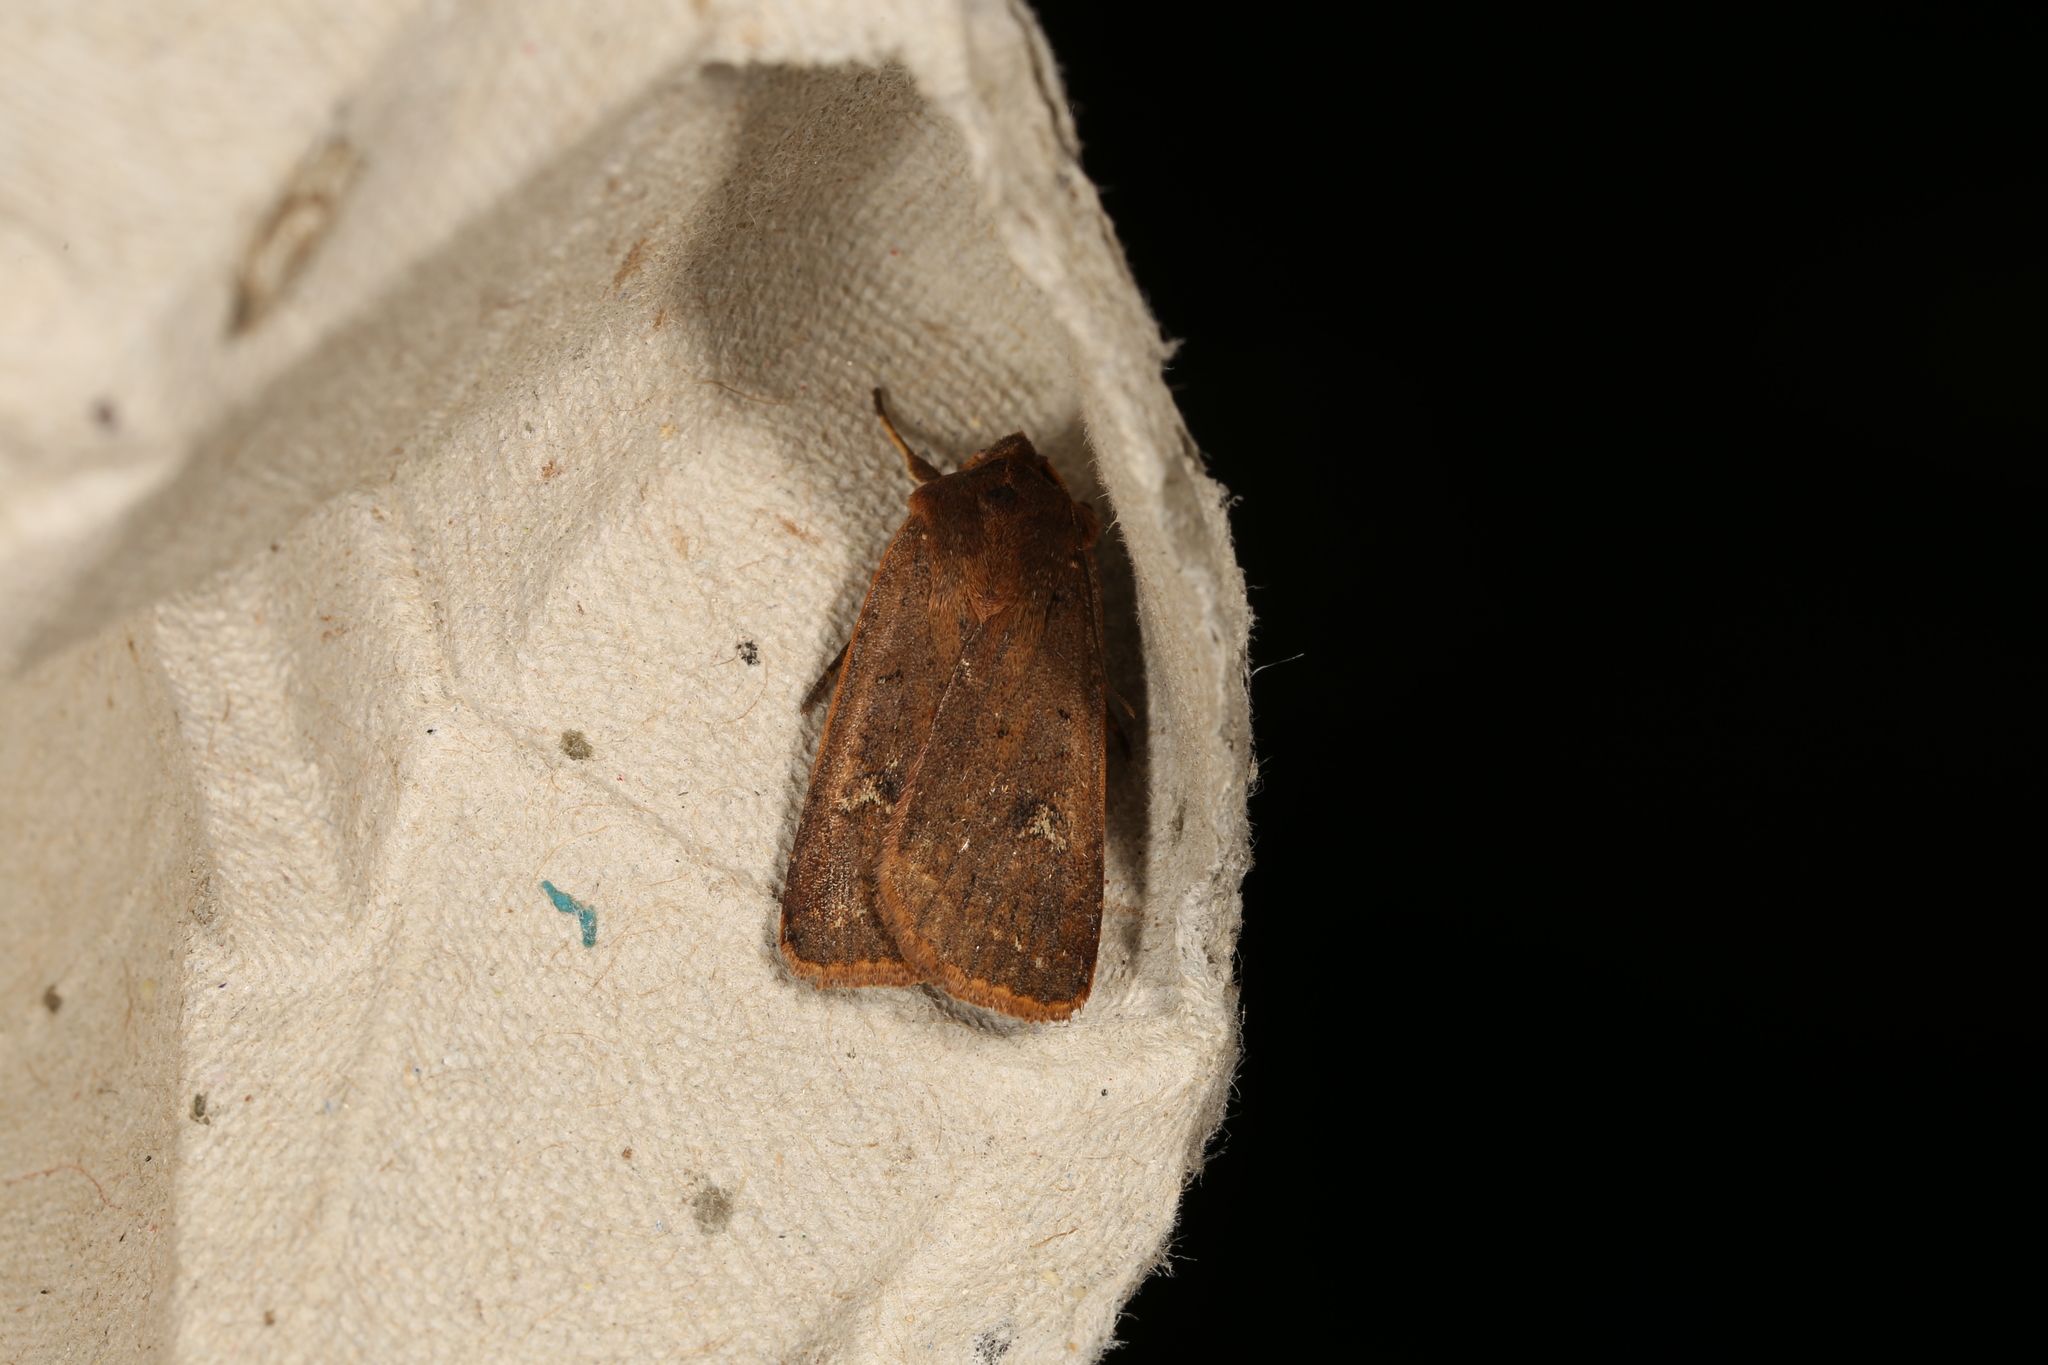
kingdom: Animalia
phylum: Arthropoda
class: Insecta
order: Lepidoptera
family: Noctuidae
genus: Diarsia
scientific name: Diarsia intermixta
